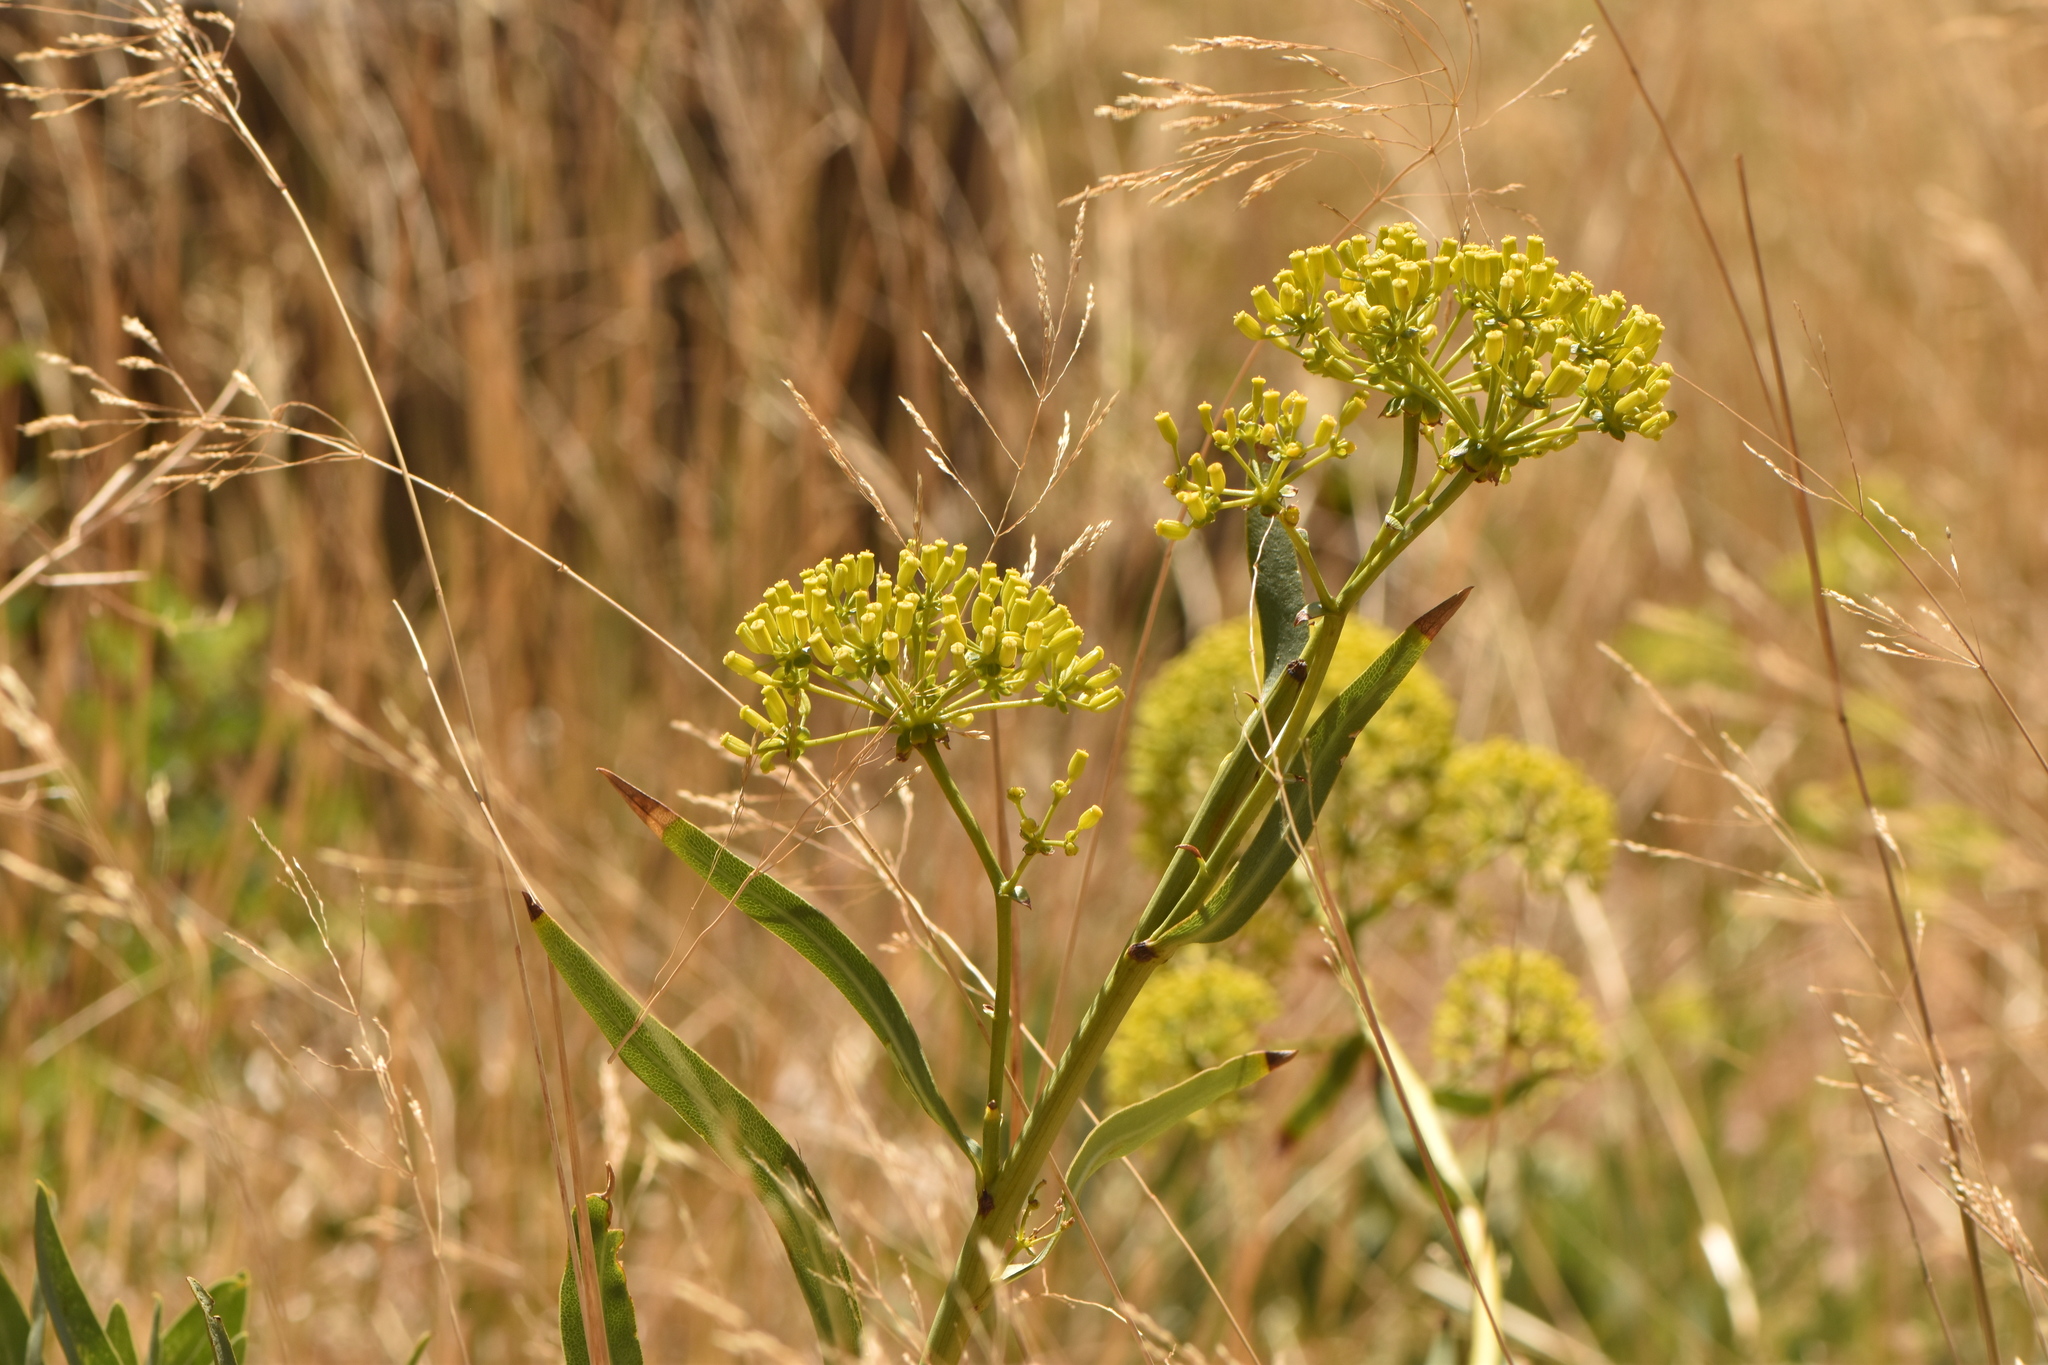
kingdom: Plantae
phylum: Tracheophyta
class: Magnoliopsida
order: Apiales
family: Apiaceae
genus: Bupleurum
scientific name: Bupleurum gibraltaricum
